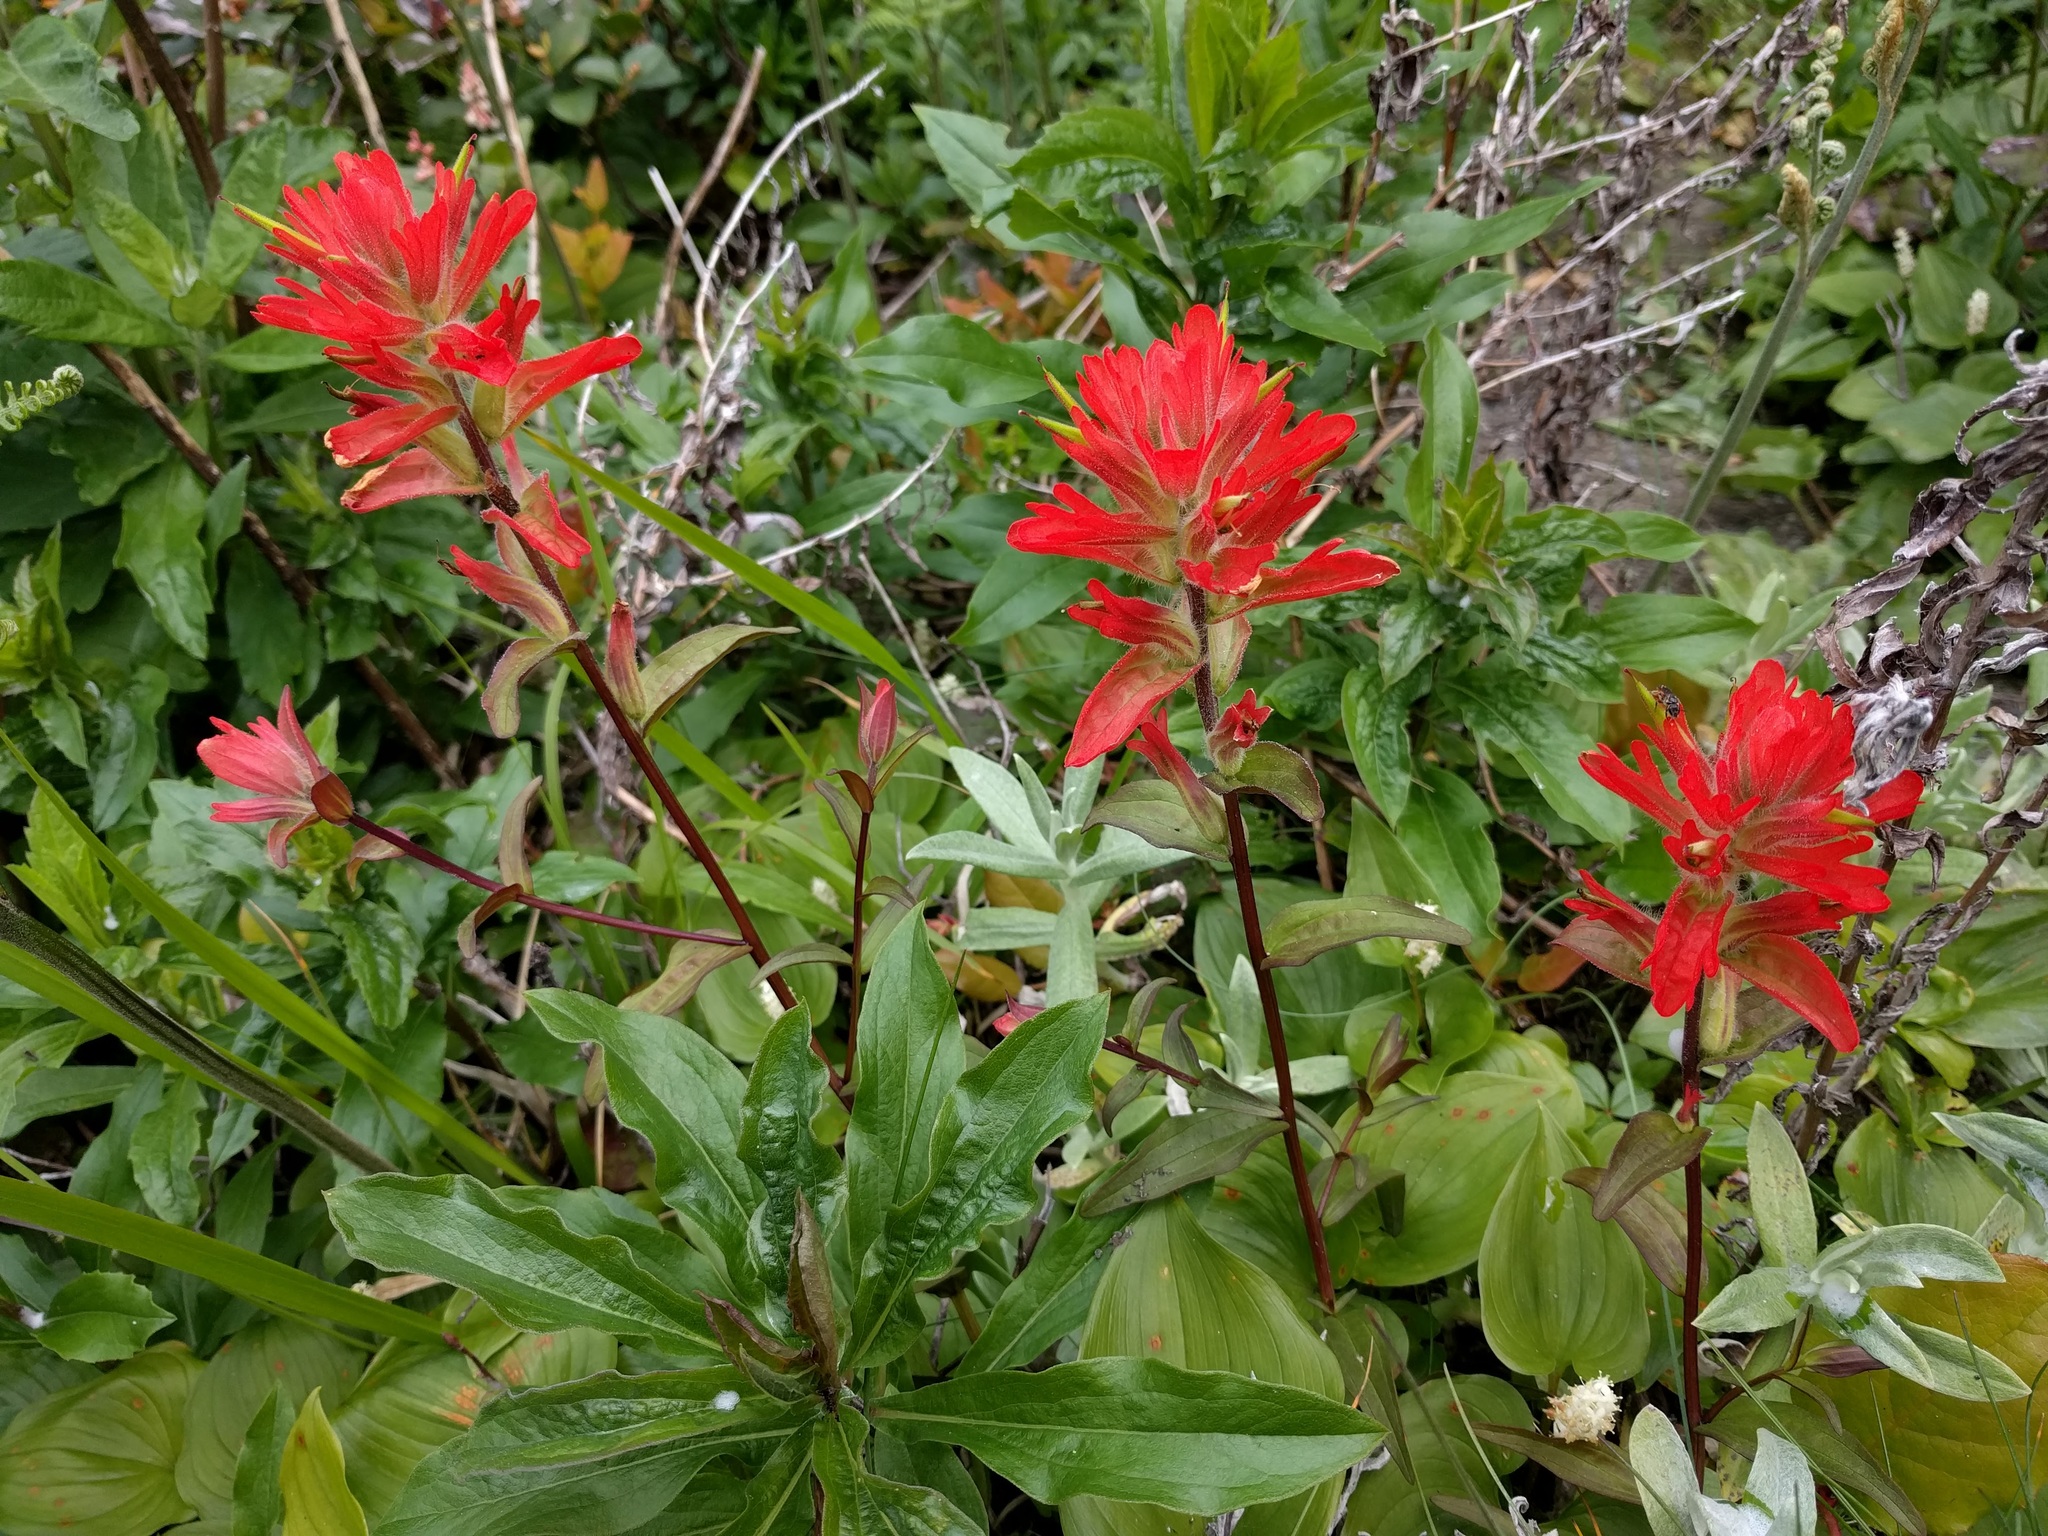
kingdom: Plantae
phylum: Tracheophyta
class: Magnoliopsida
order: Lamiales
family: Orobanchaceae
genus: Castilleja
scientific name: Castilleja miniata
